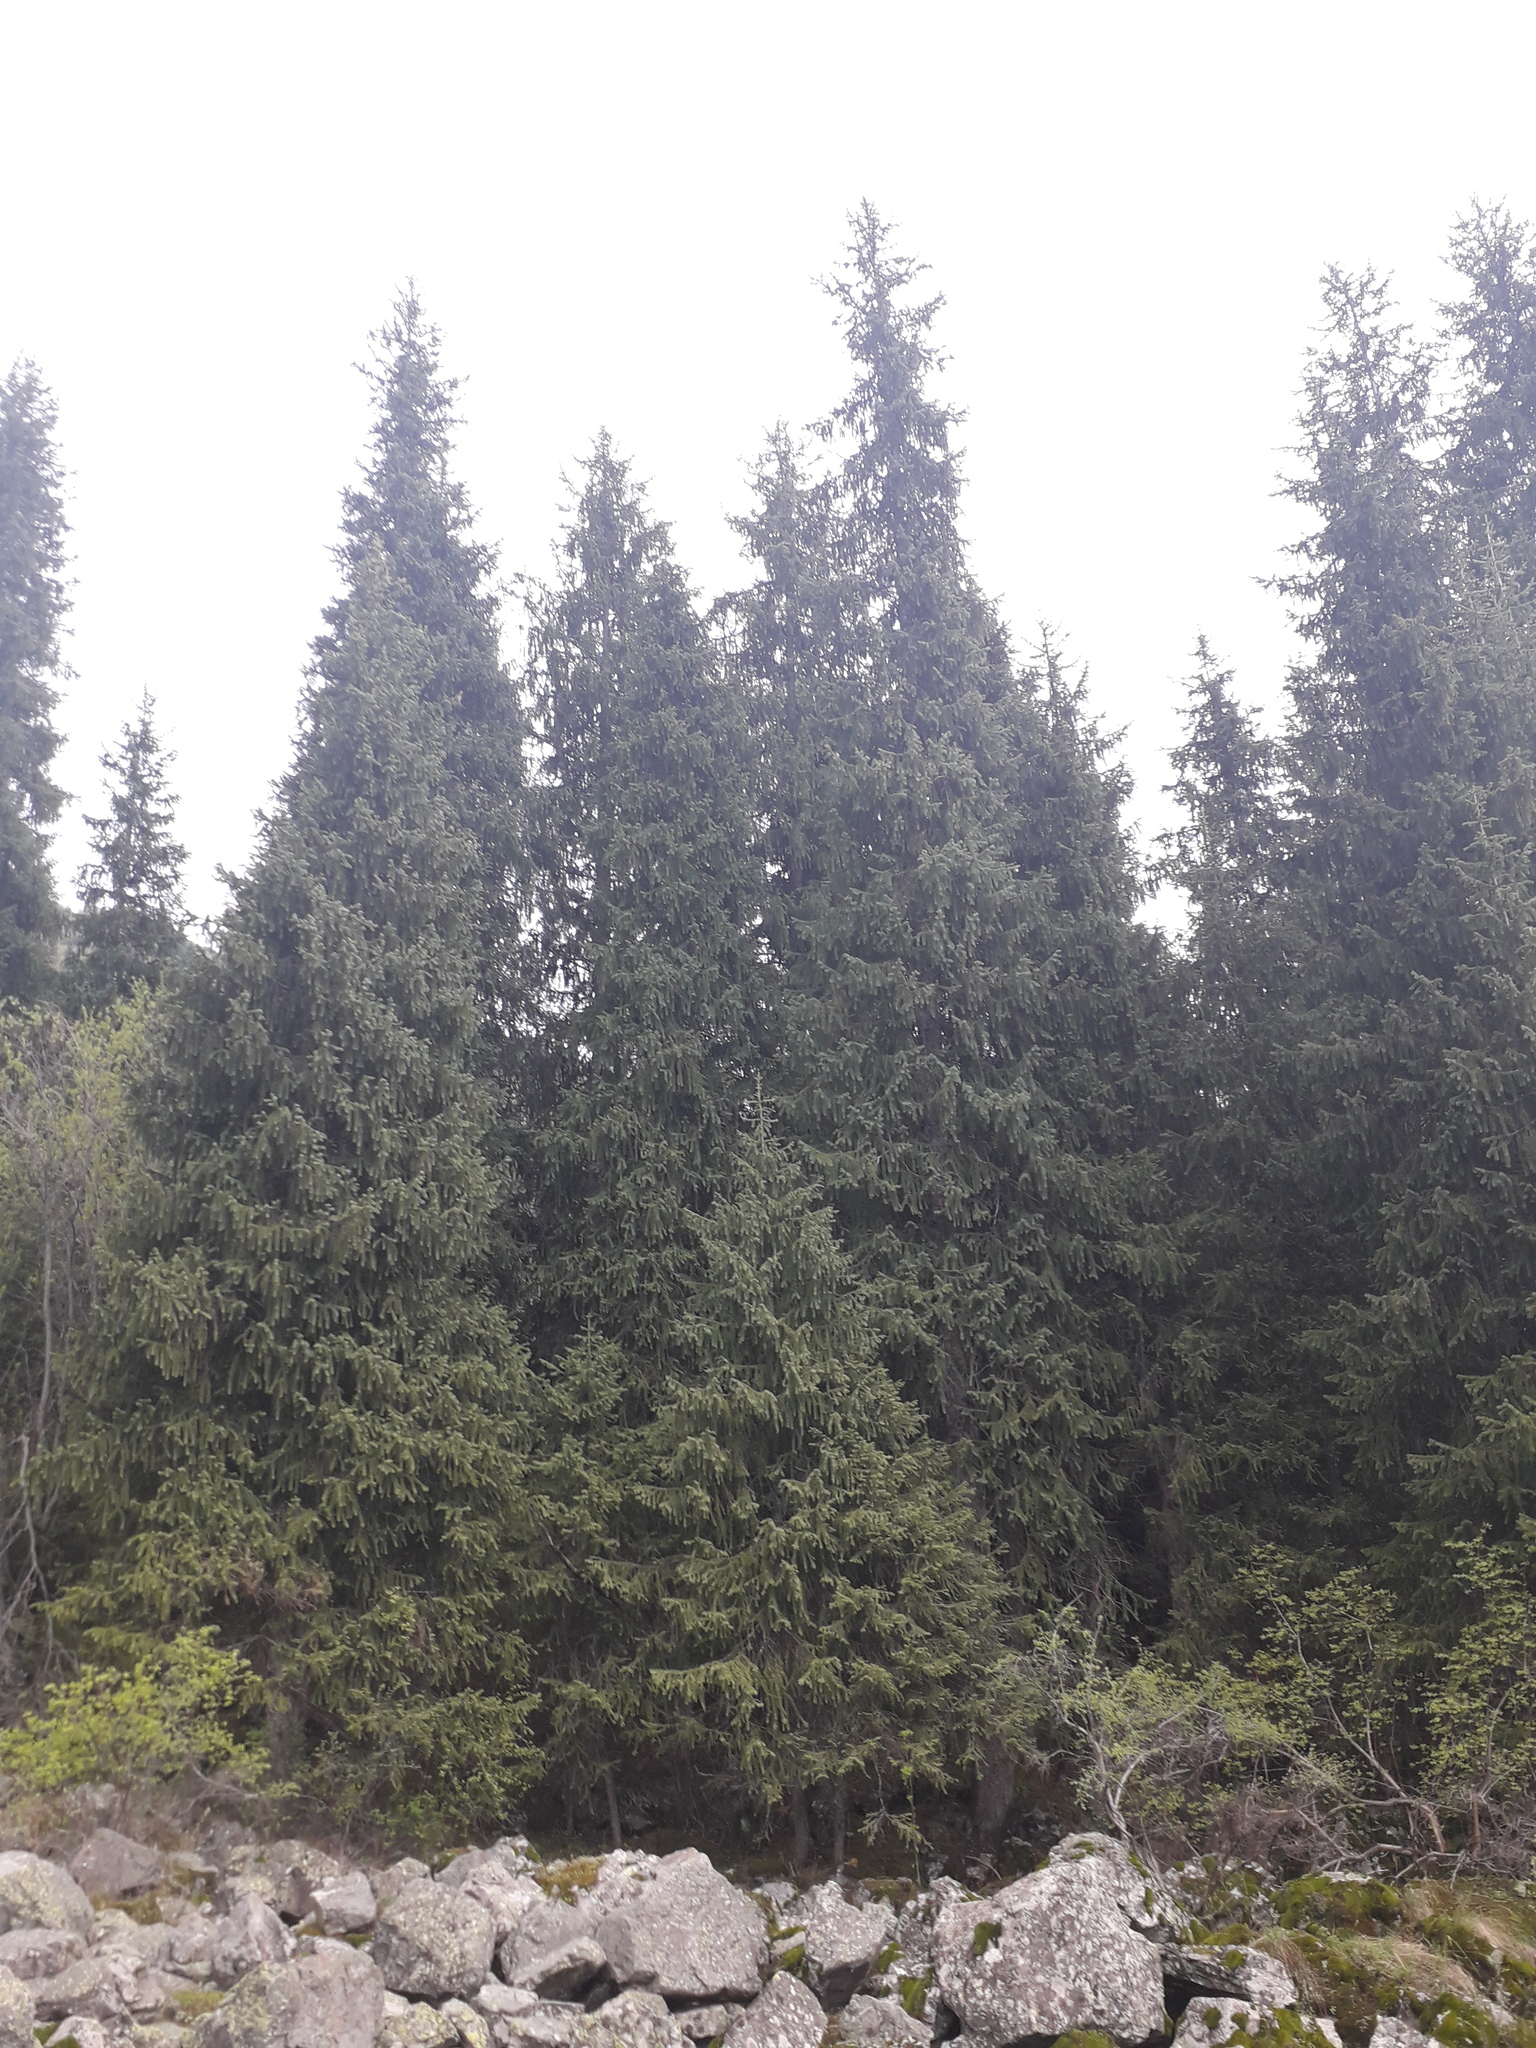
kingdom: Plantae
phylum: Tracheophyta
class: Pinopsida
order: Pinales
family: Pinaceae
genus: Picea
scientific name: Picea schrenkiana
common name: Asian spruce
